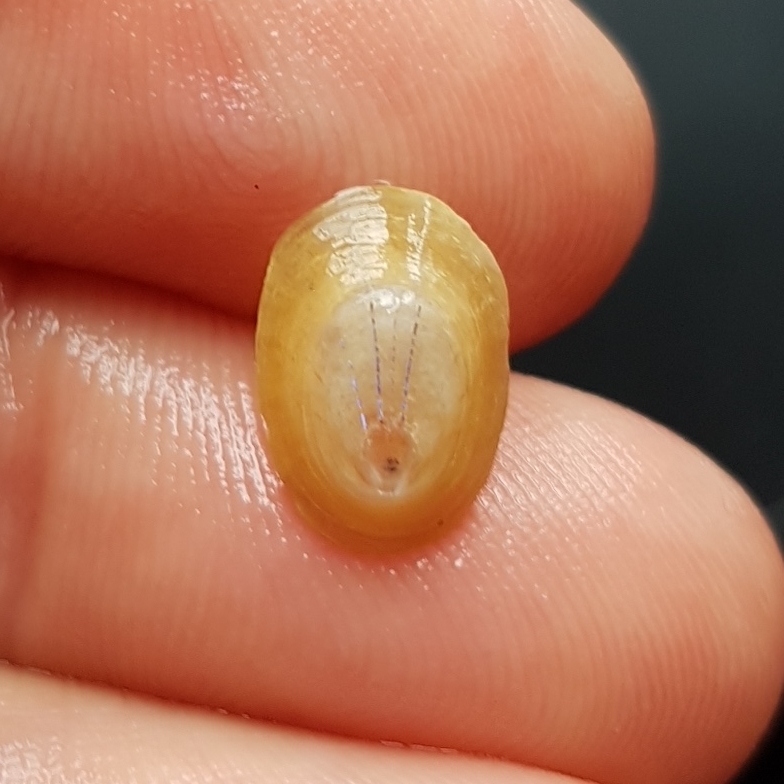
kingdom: Animalia
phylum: Mollusca
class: Gastropoda
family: Patellidae
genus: Patella
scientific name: Patella pellucida
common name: Blue-rayed limpet
